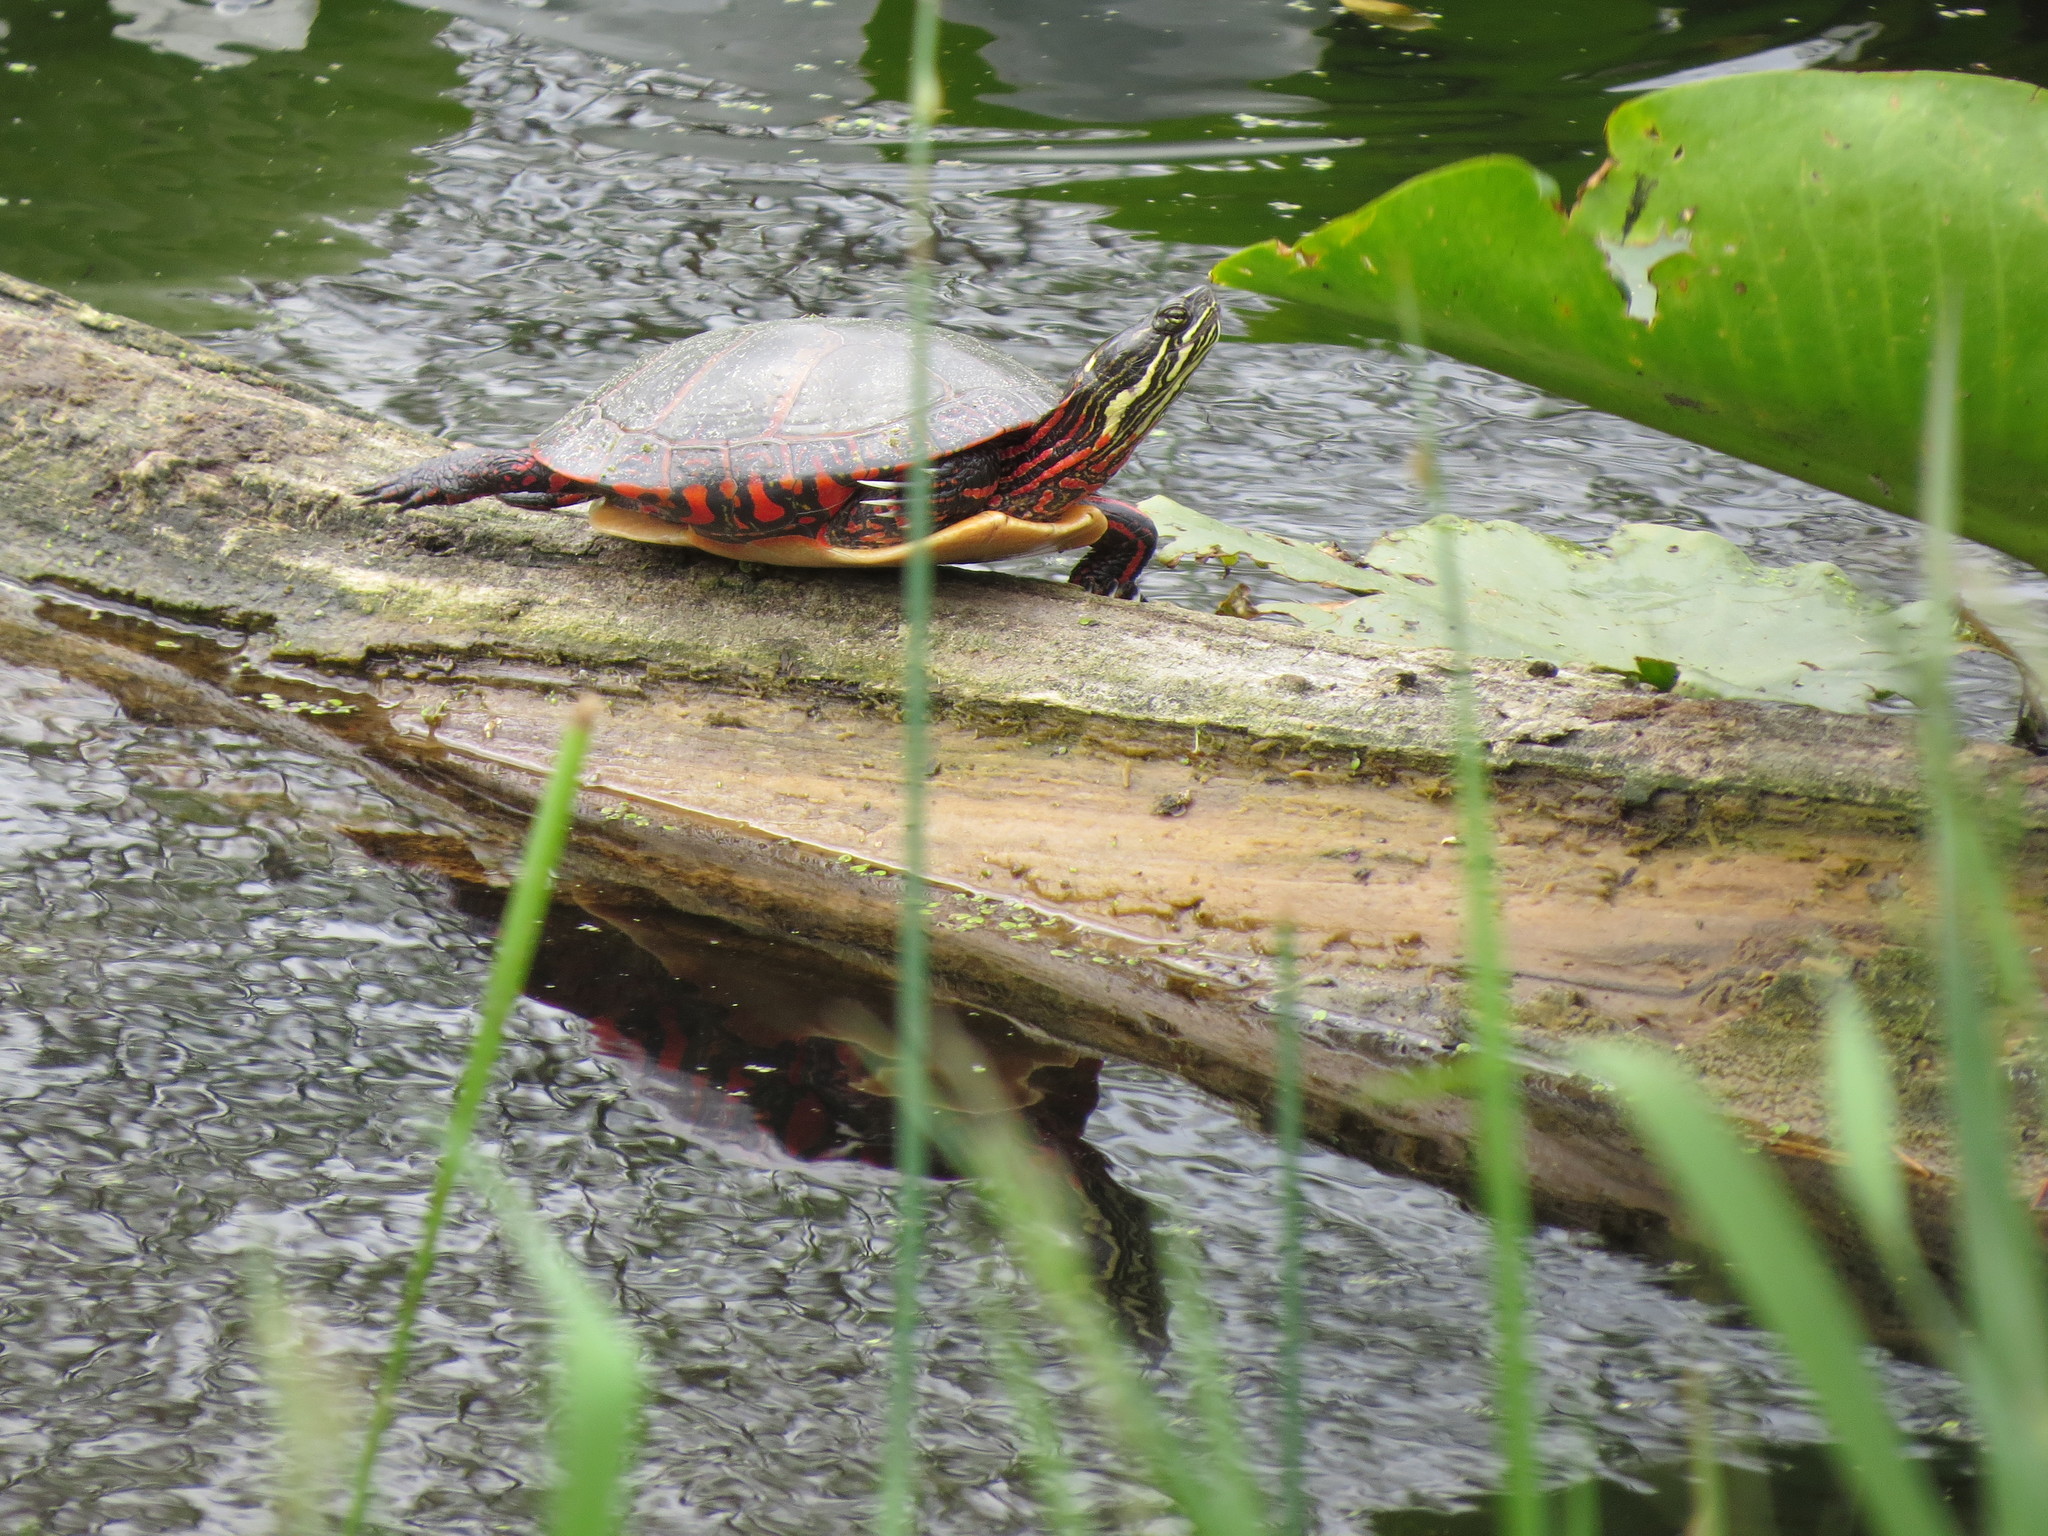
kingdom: Animalia
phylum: Chordata
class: Testudines
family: Emydidae
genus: Chrysemys
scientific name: Chrysemys picta
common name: Painted turtle
